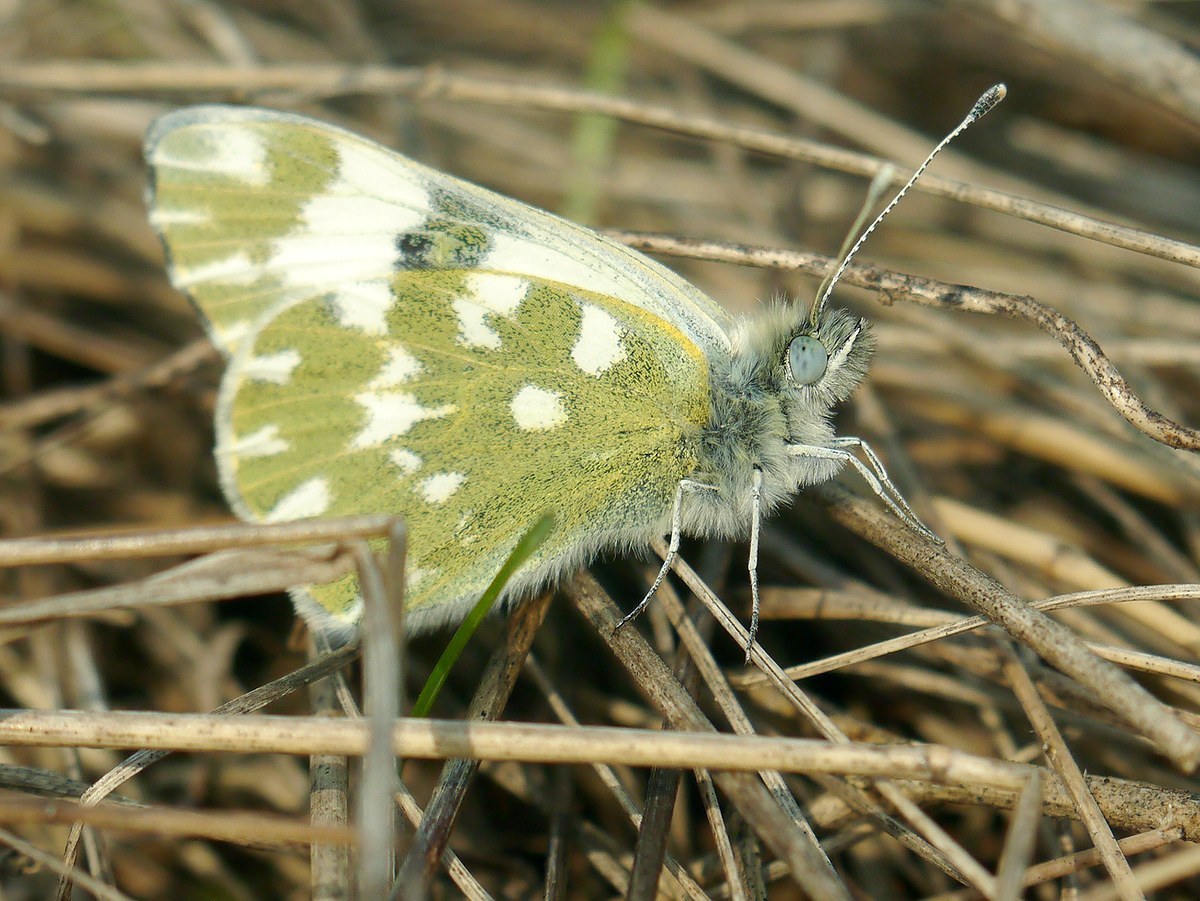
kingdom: Animalia
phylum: Arthropoda
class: Insecta
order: Lepidoptera
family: Pieridae
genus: Pontia
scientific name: Pontia edusa
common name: Eastern bath white
